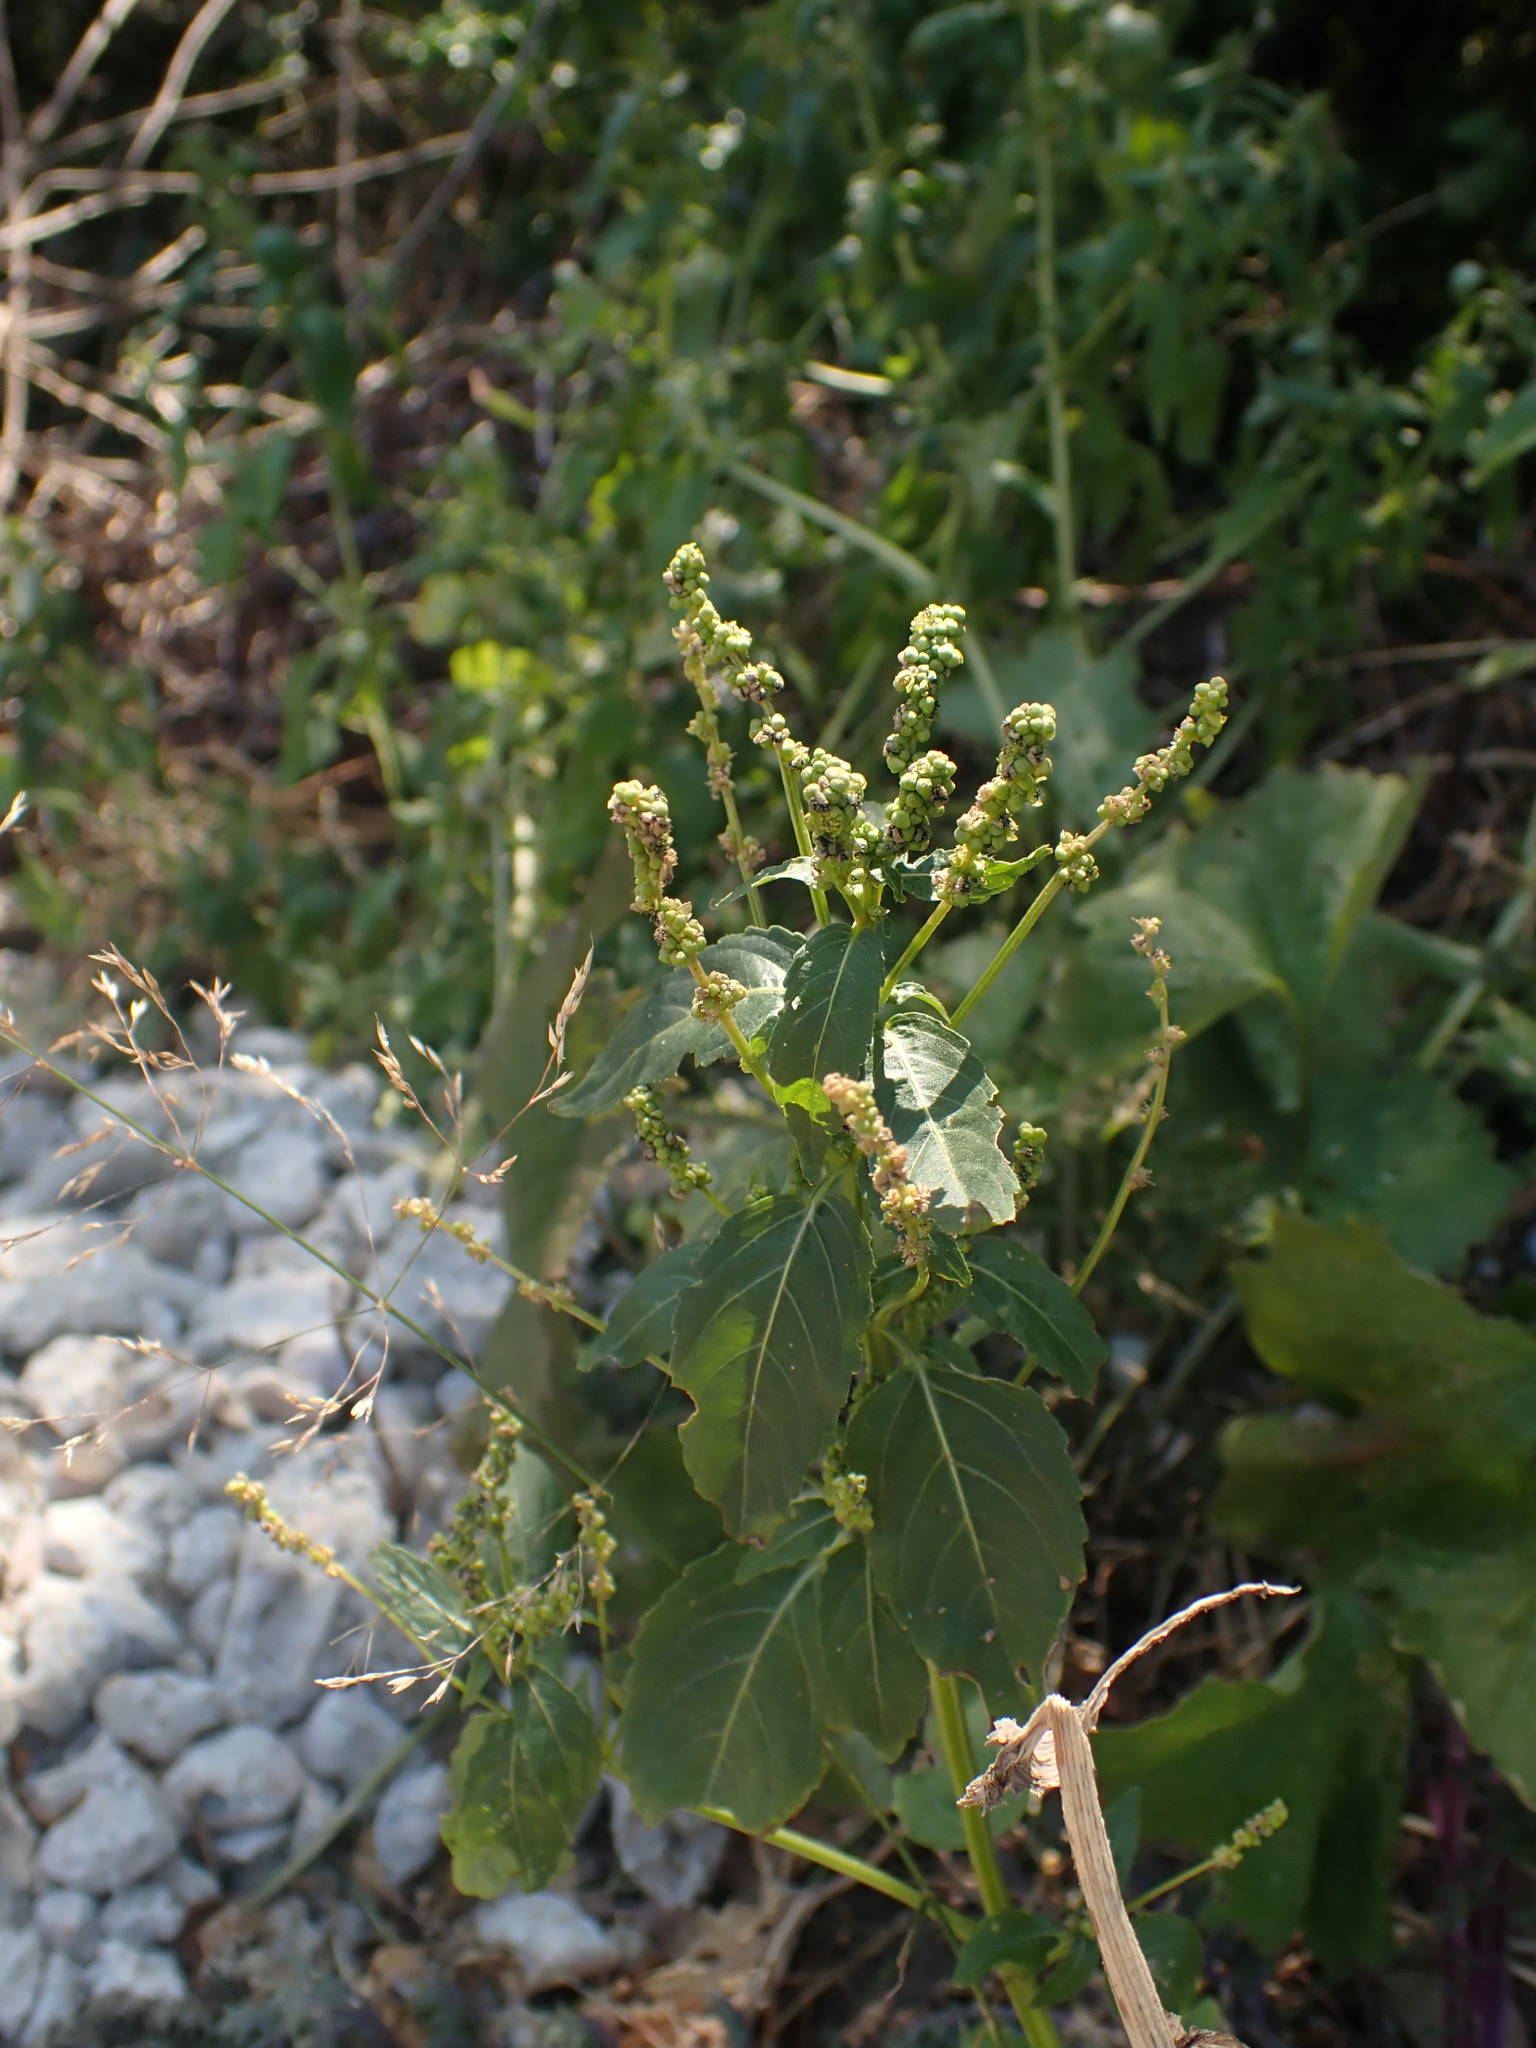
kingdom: Plantae
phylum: Tracheophyta
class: Magnoliopsida
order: Malpighiales
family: Euphorbiaceae
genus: Mercurialis
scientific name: Mercurialis annua
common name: Annual mercury
